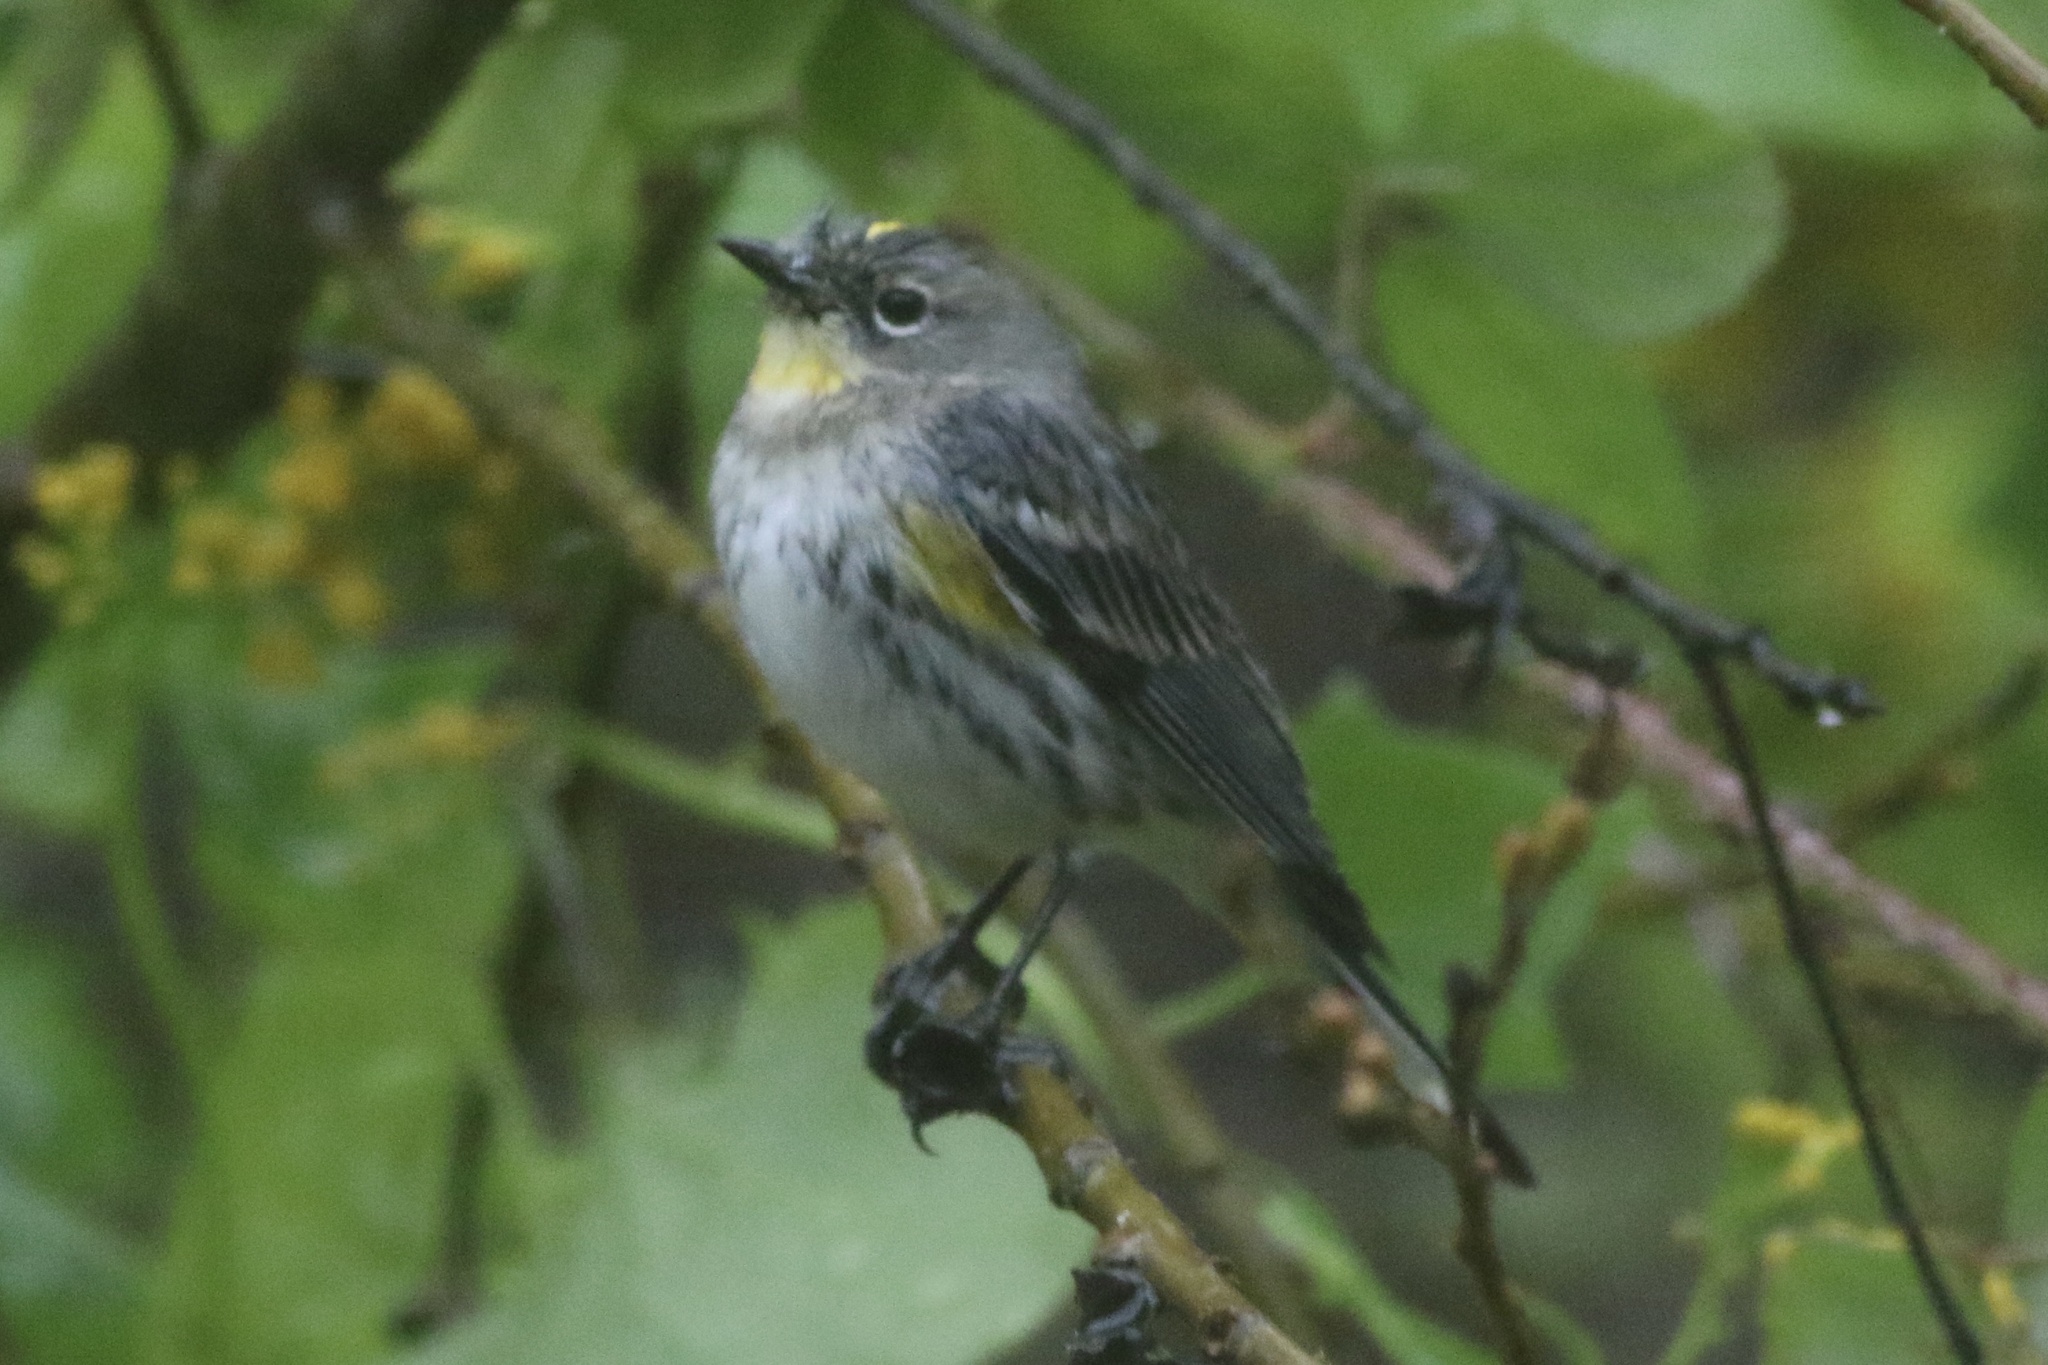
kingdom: Animalia
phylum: Chordata
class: Aves
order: Passeriformes
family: Parulidae
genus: Setophaga
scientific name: Setophaga coronata
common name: Myrtle warbler
